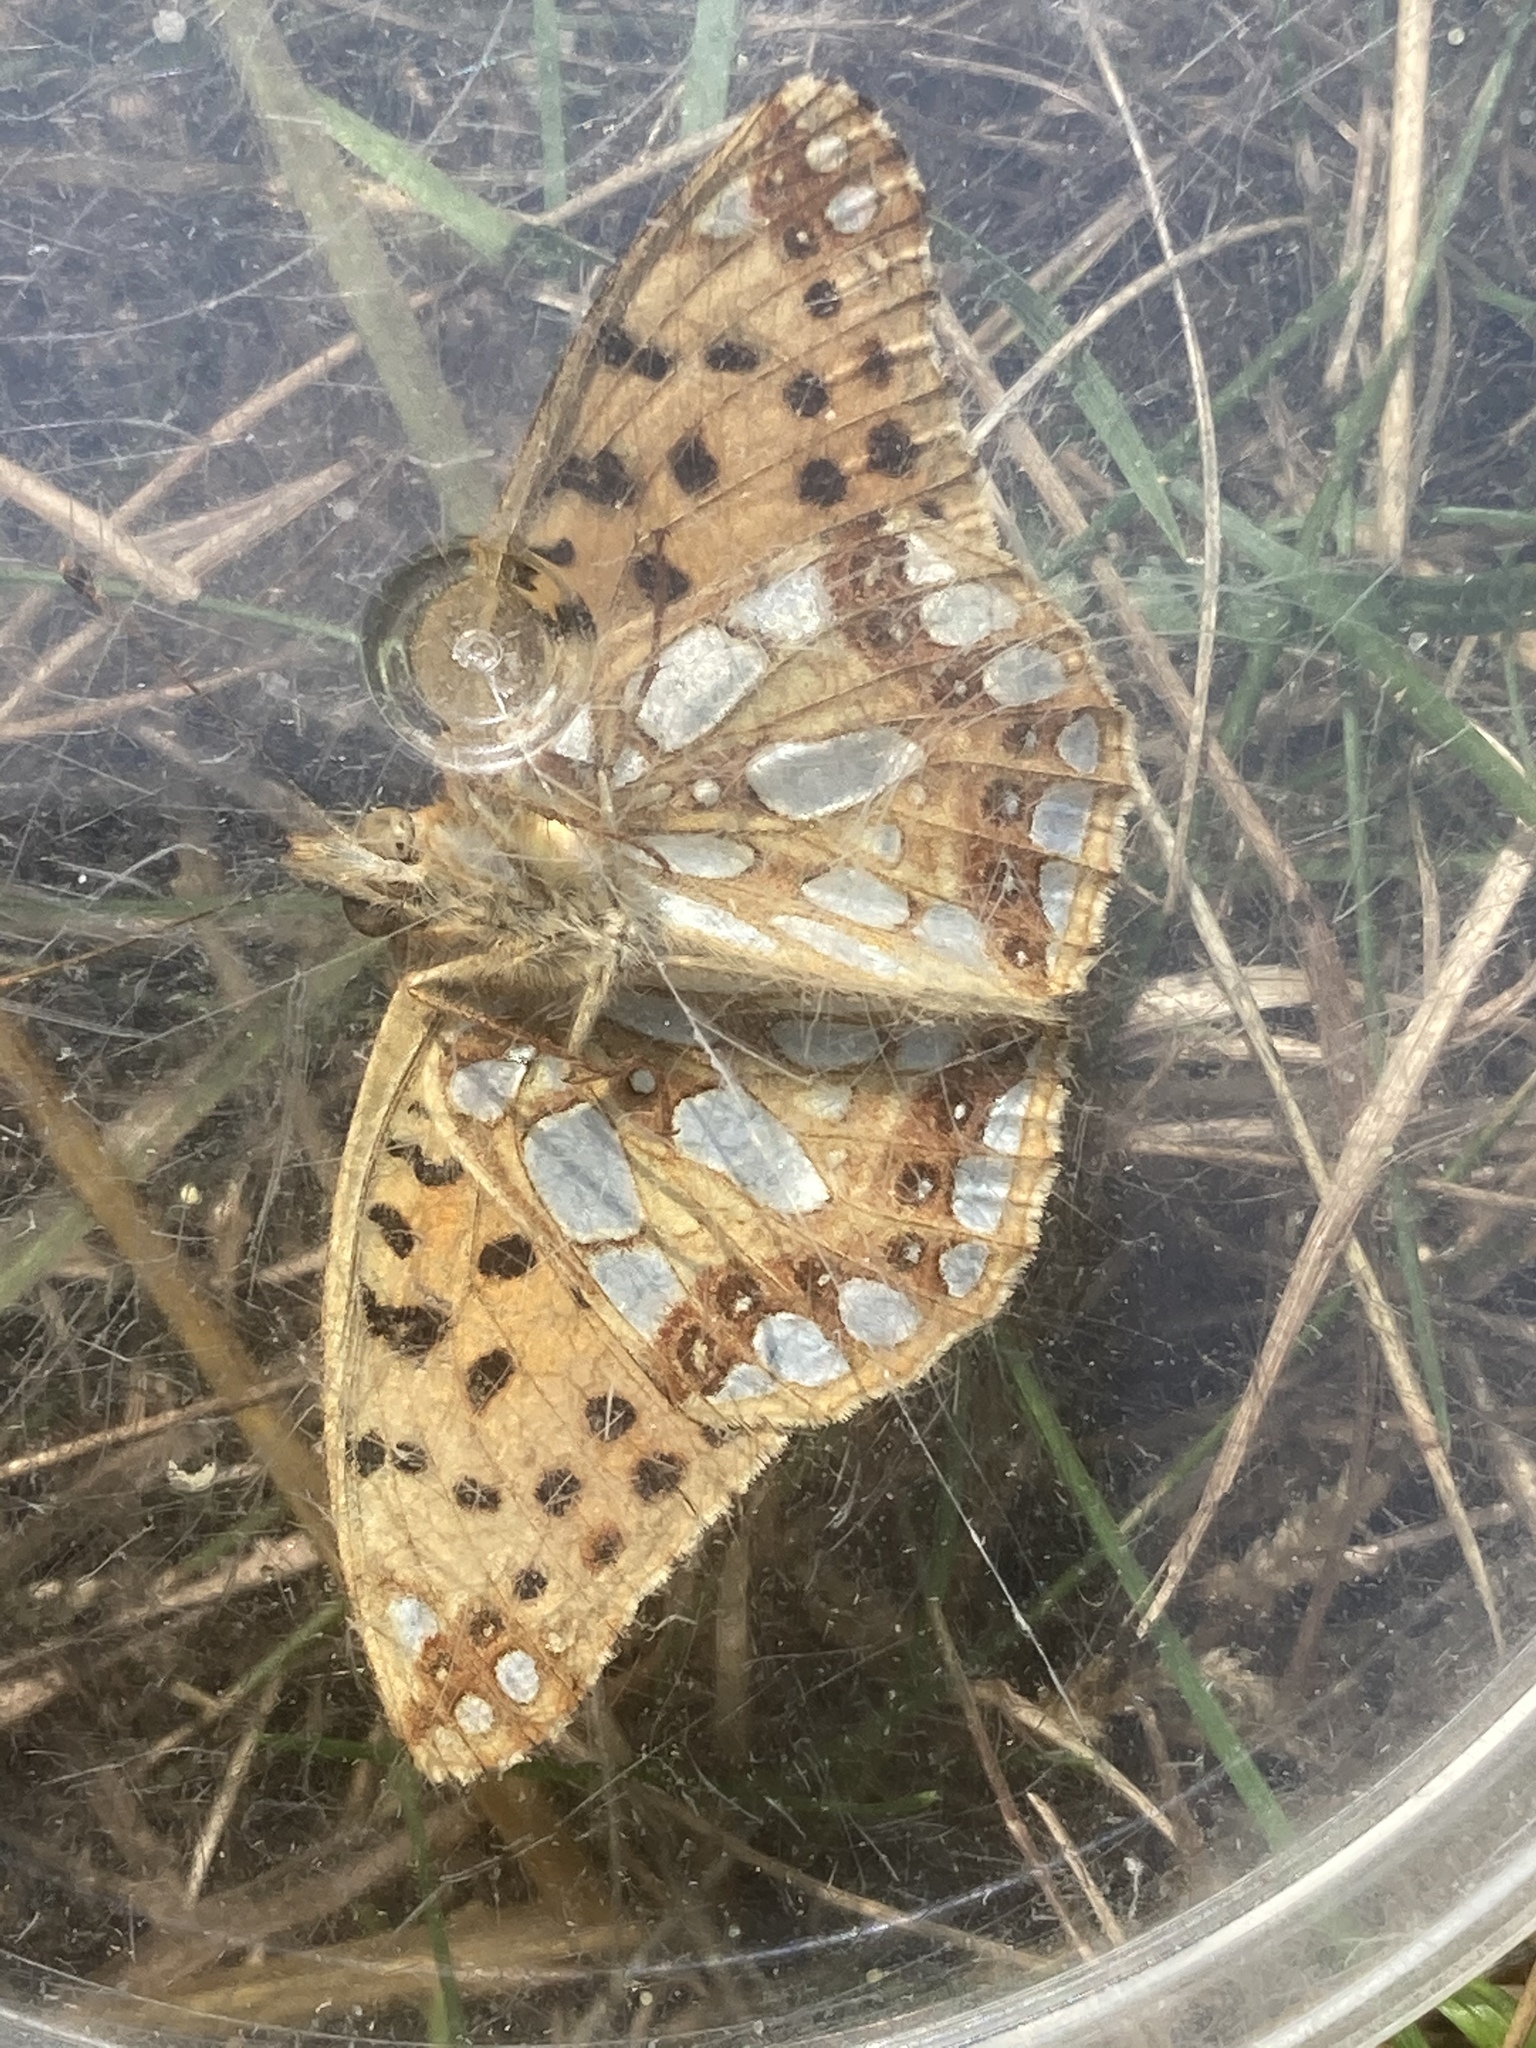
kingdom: Animalia
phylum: Arthropoda
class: Insecta
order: Lepidoptera
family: Nymphalidae
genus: Issoria
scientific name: Issoria lathonia
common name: Queen of spain fritillary
